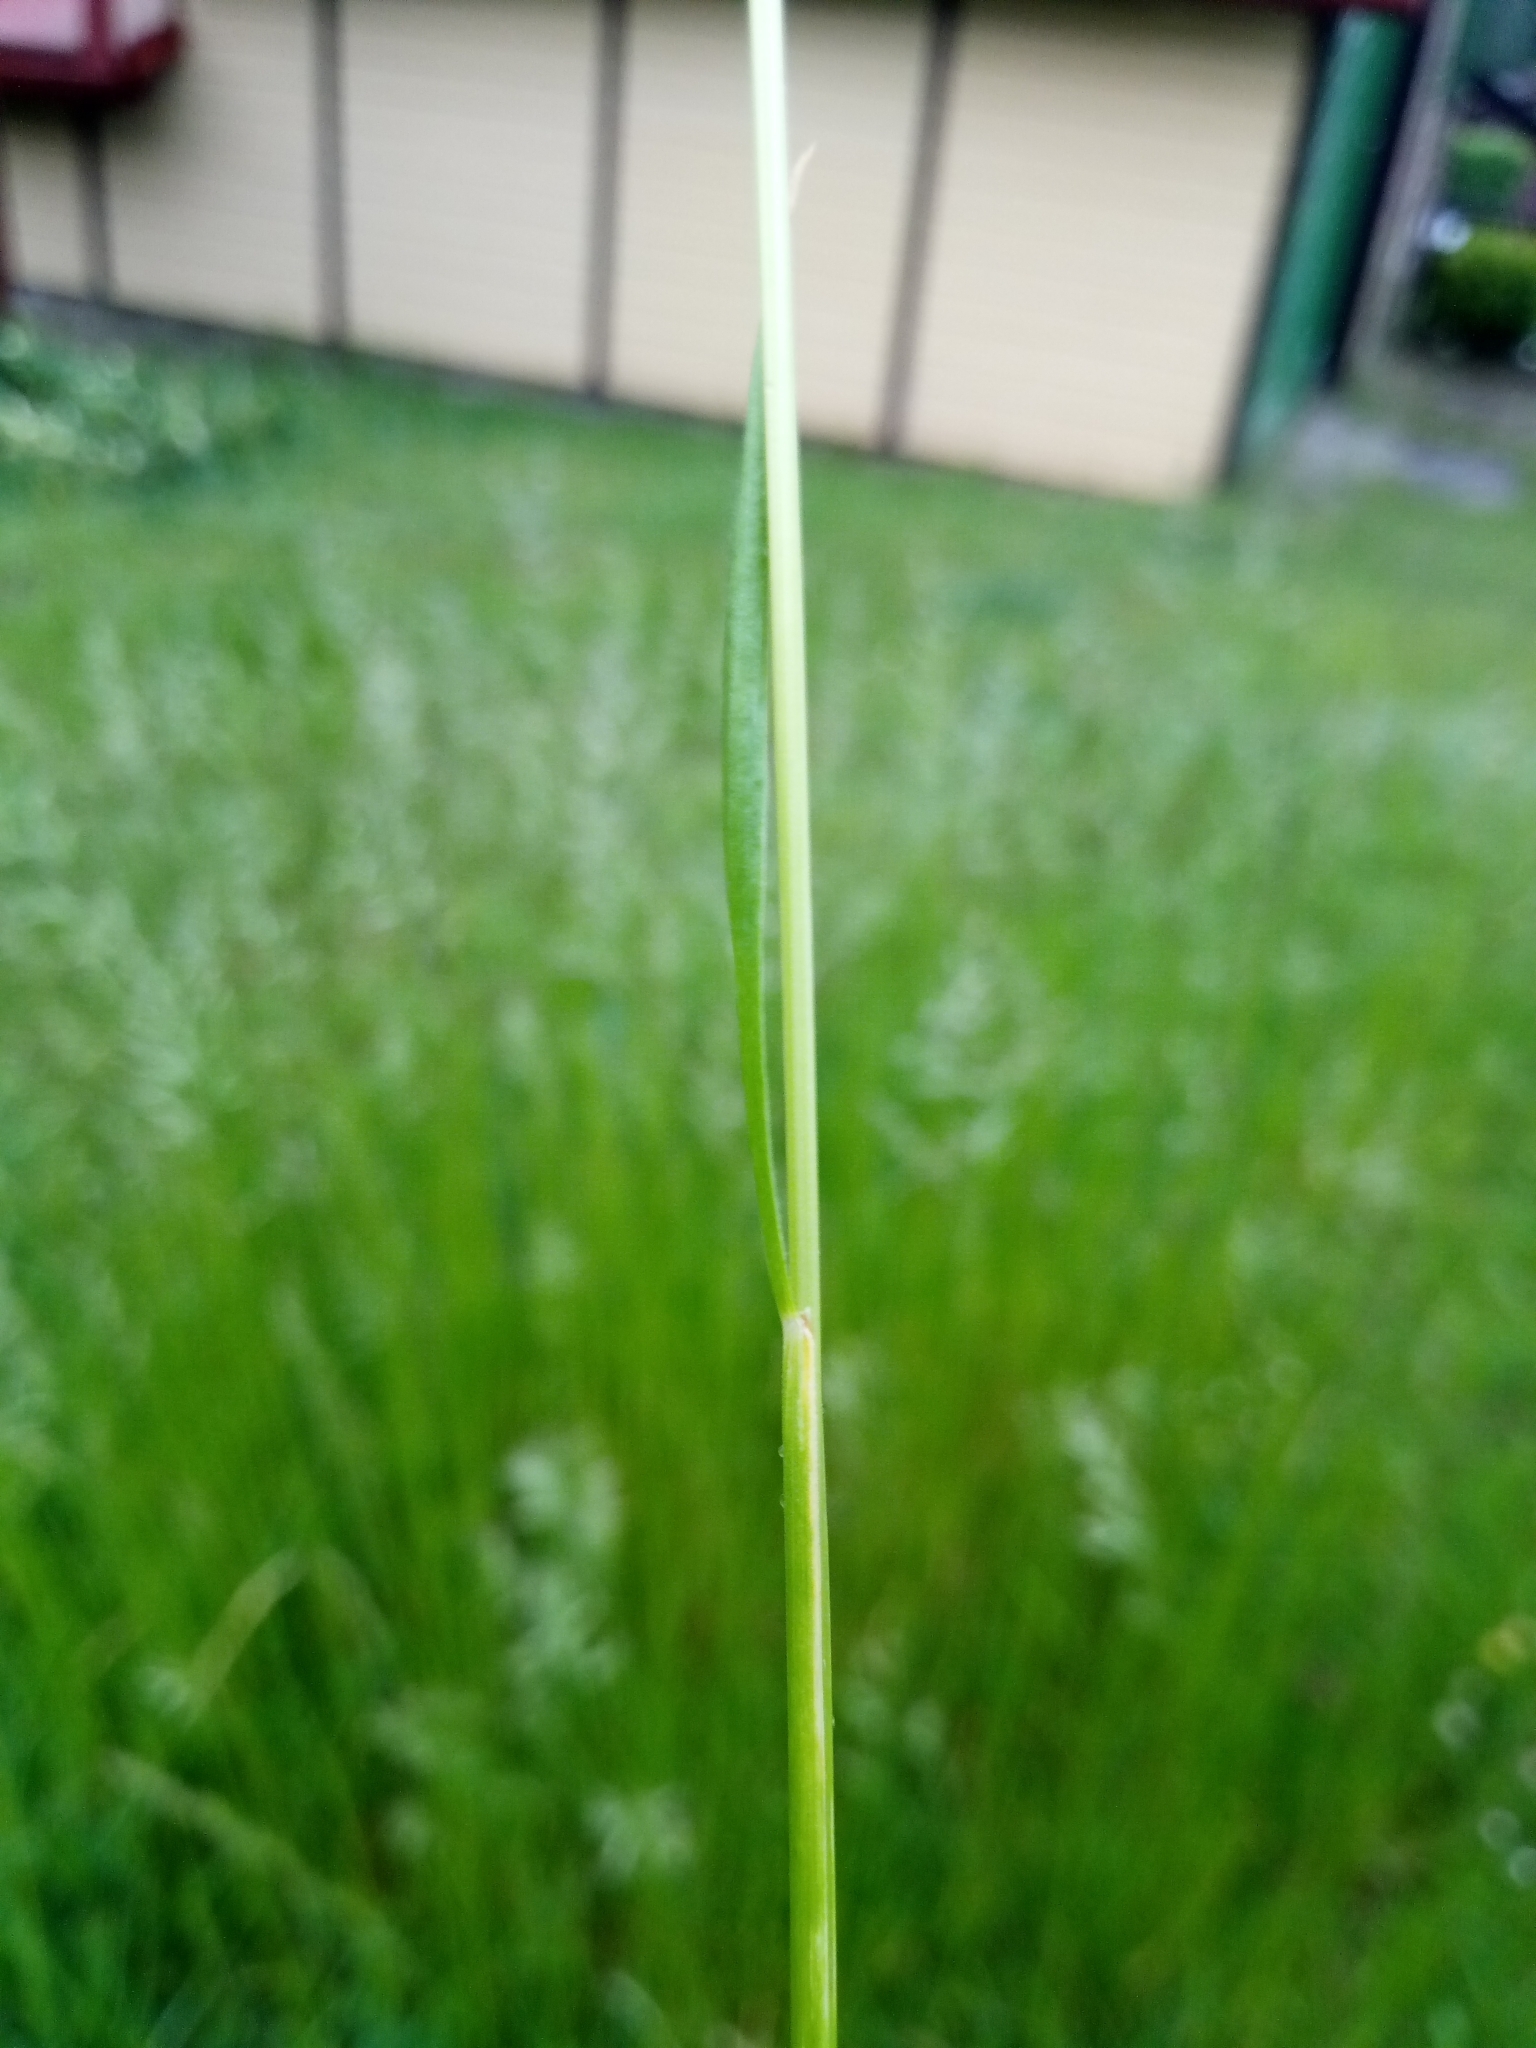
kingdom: Plantae
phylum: Tracheophyta
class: Liliopsida
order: Poales
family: Poaceae
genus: Festuca
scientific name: Festuca rubra
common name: Red fescue
